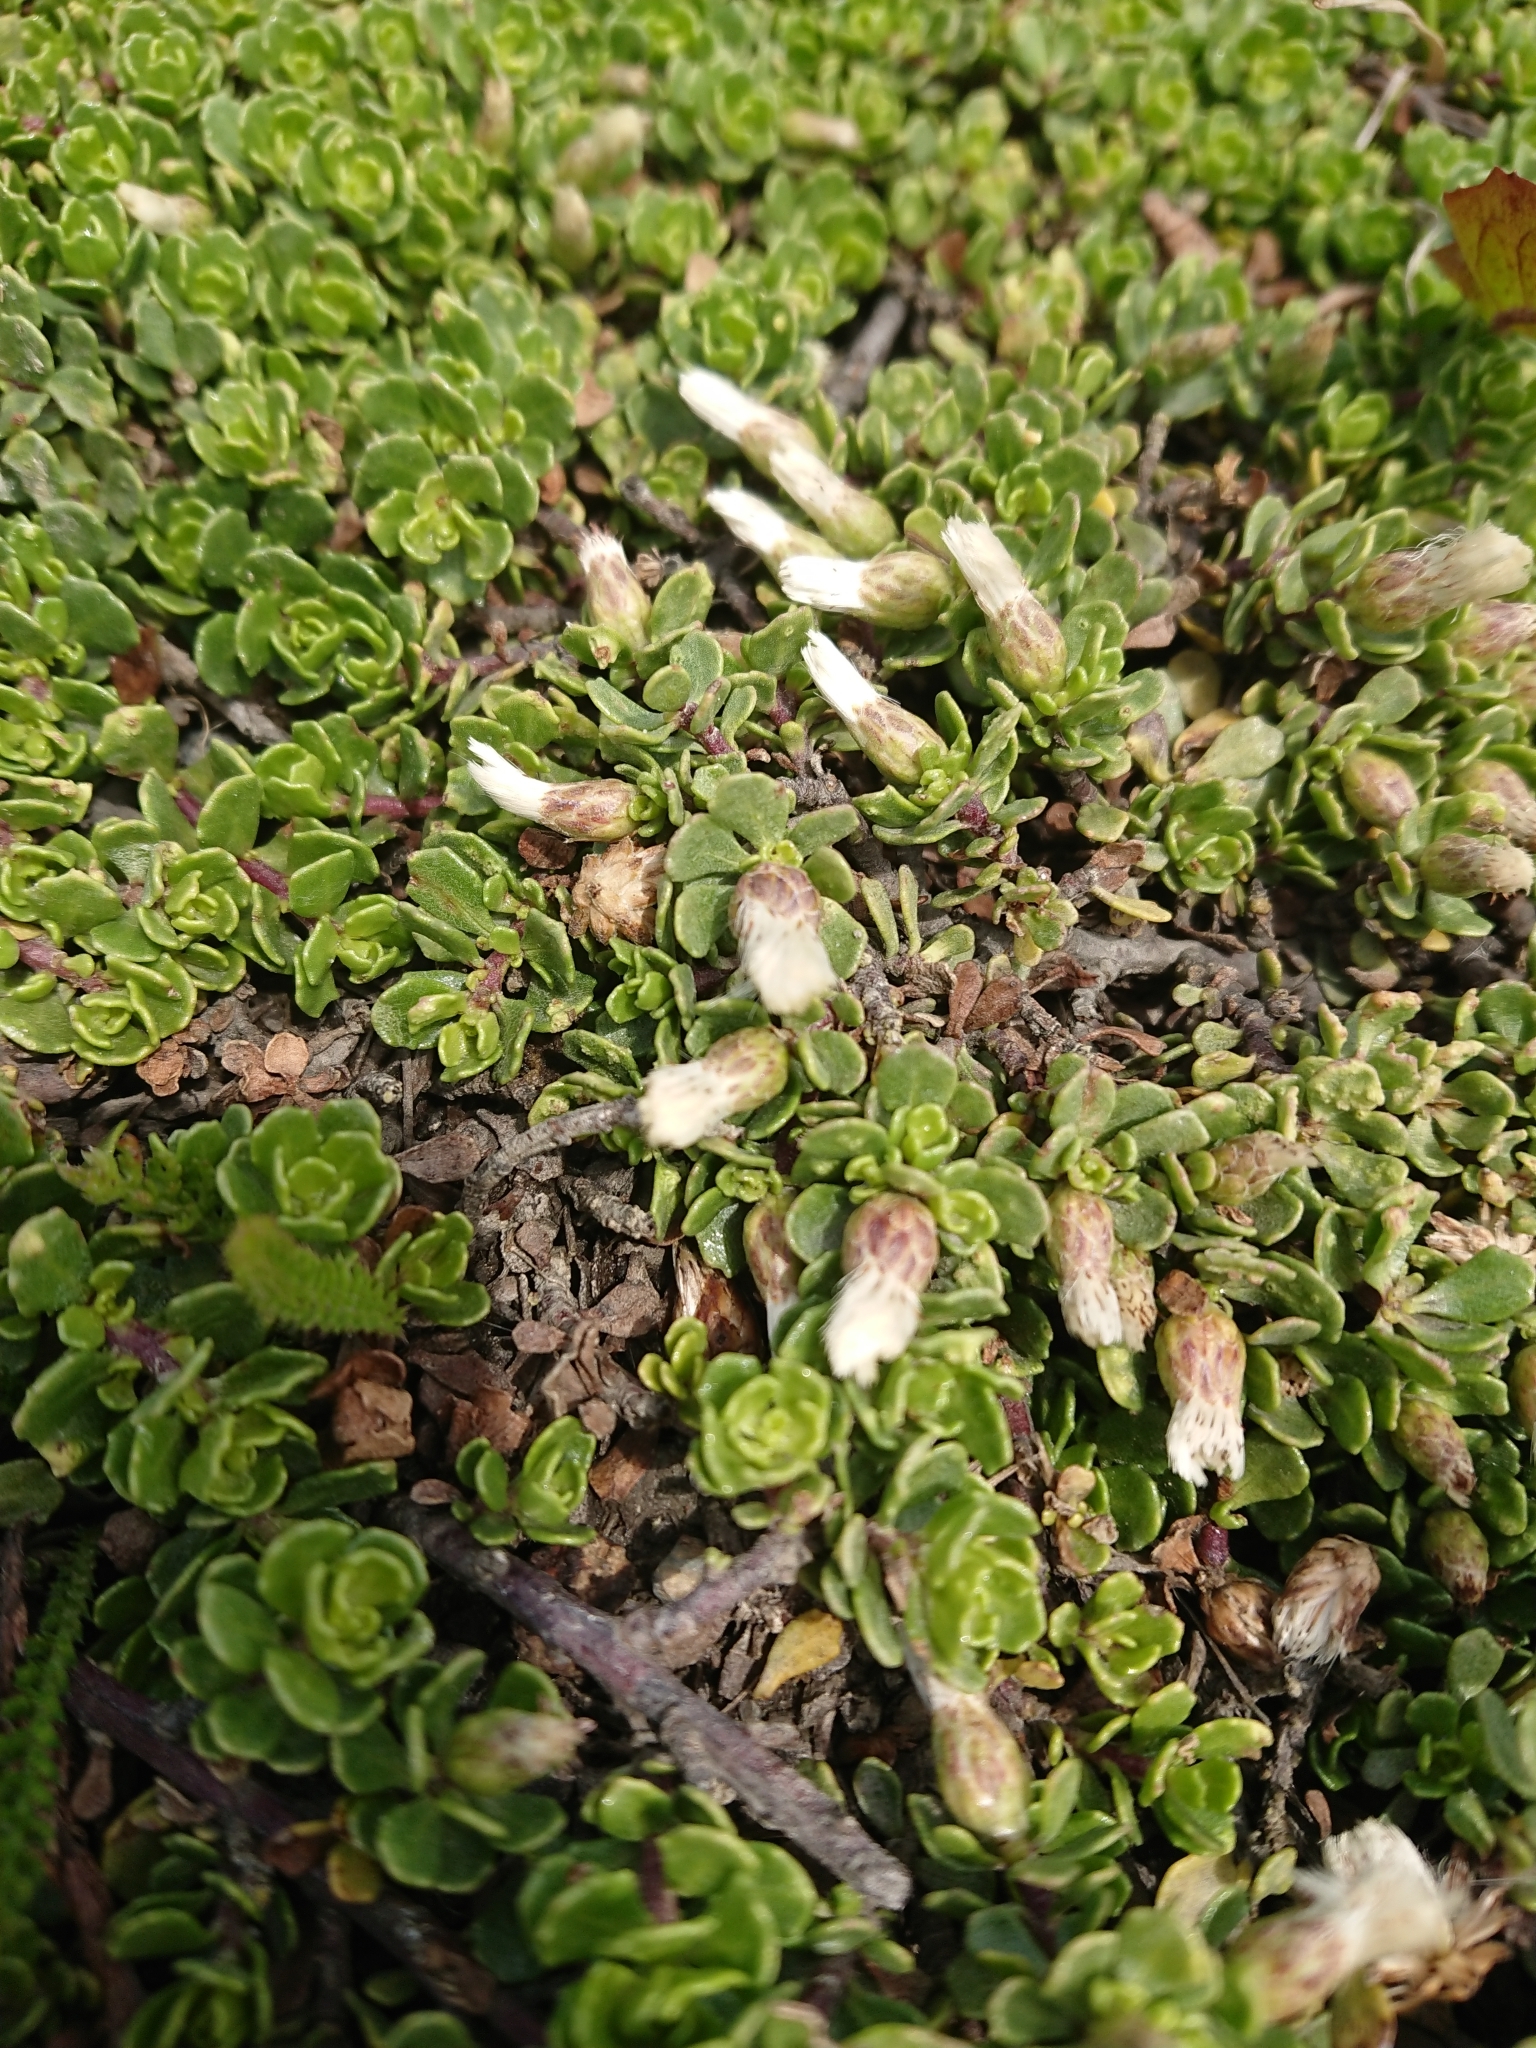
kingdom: Plantae
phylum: Tracheophyta
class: Magnoliopsida
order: Asterales
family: Asteraceae
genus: Baccharis
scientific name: Baccharis magellanica
